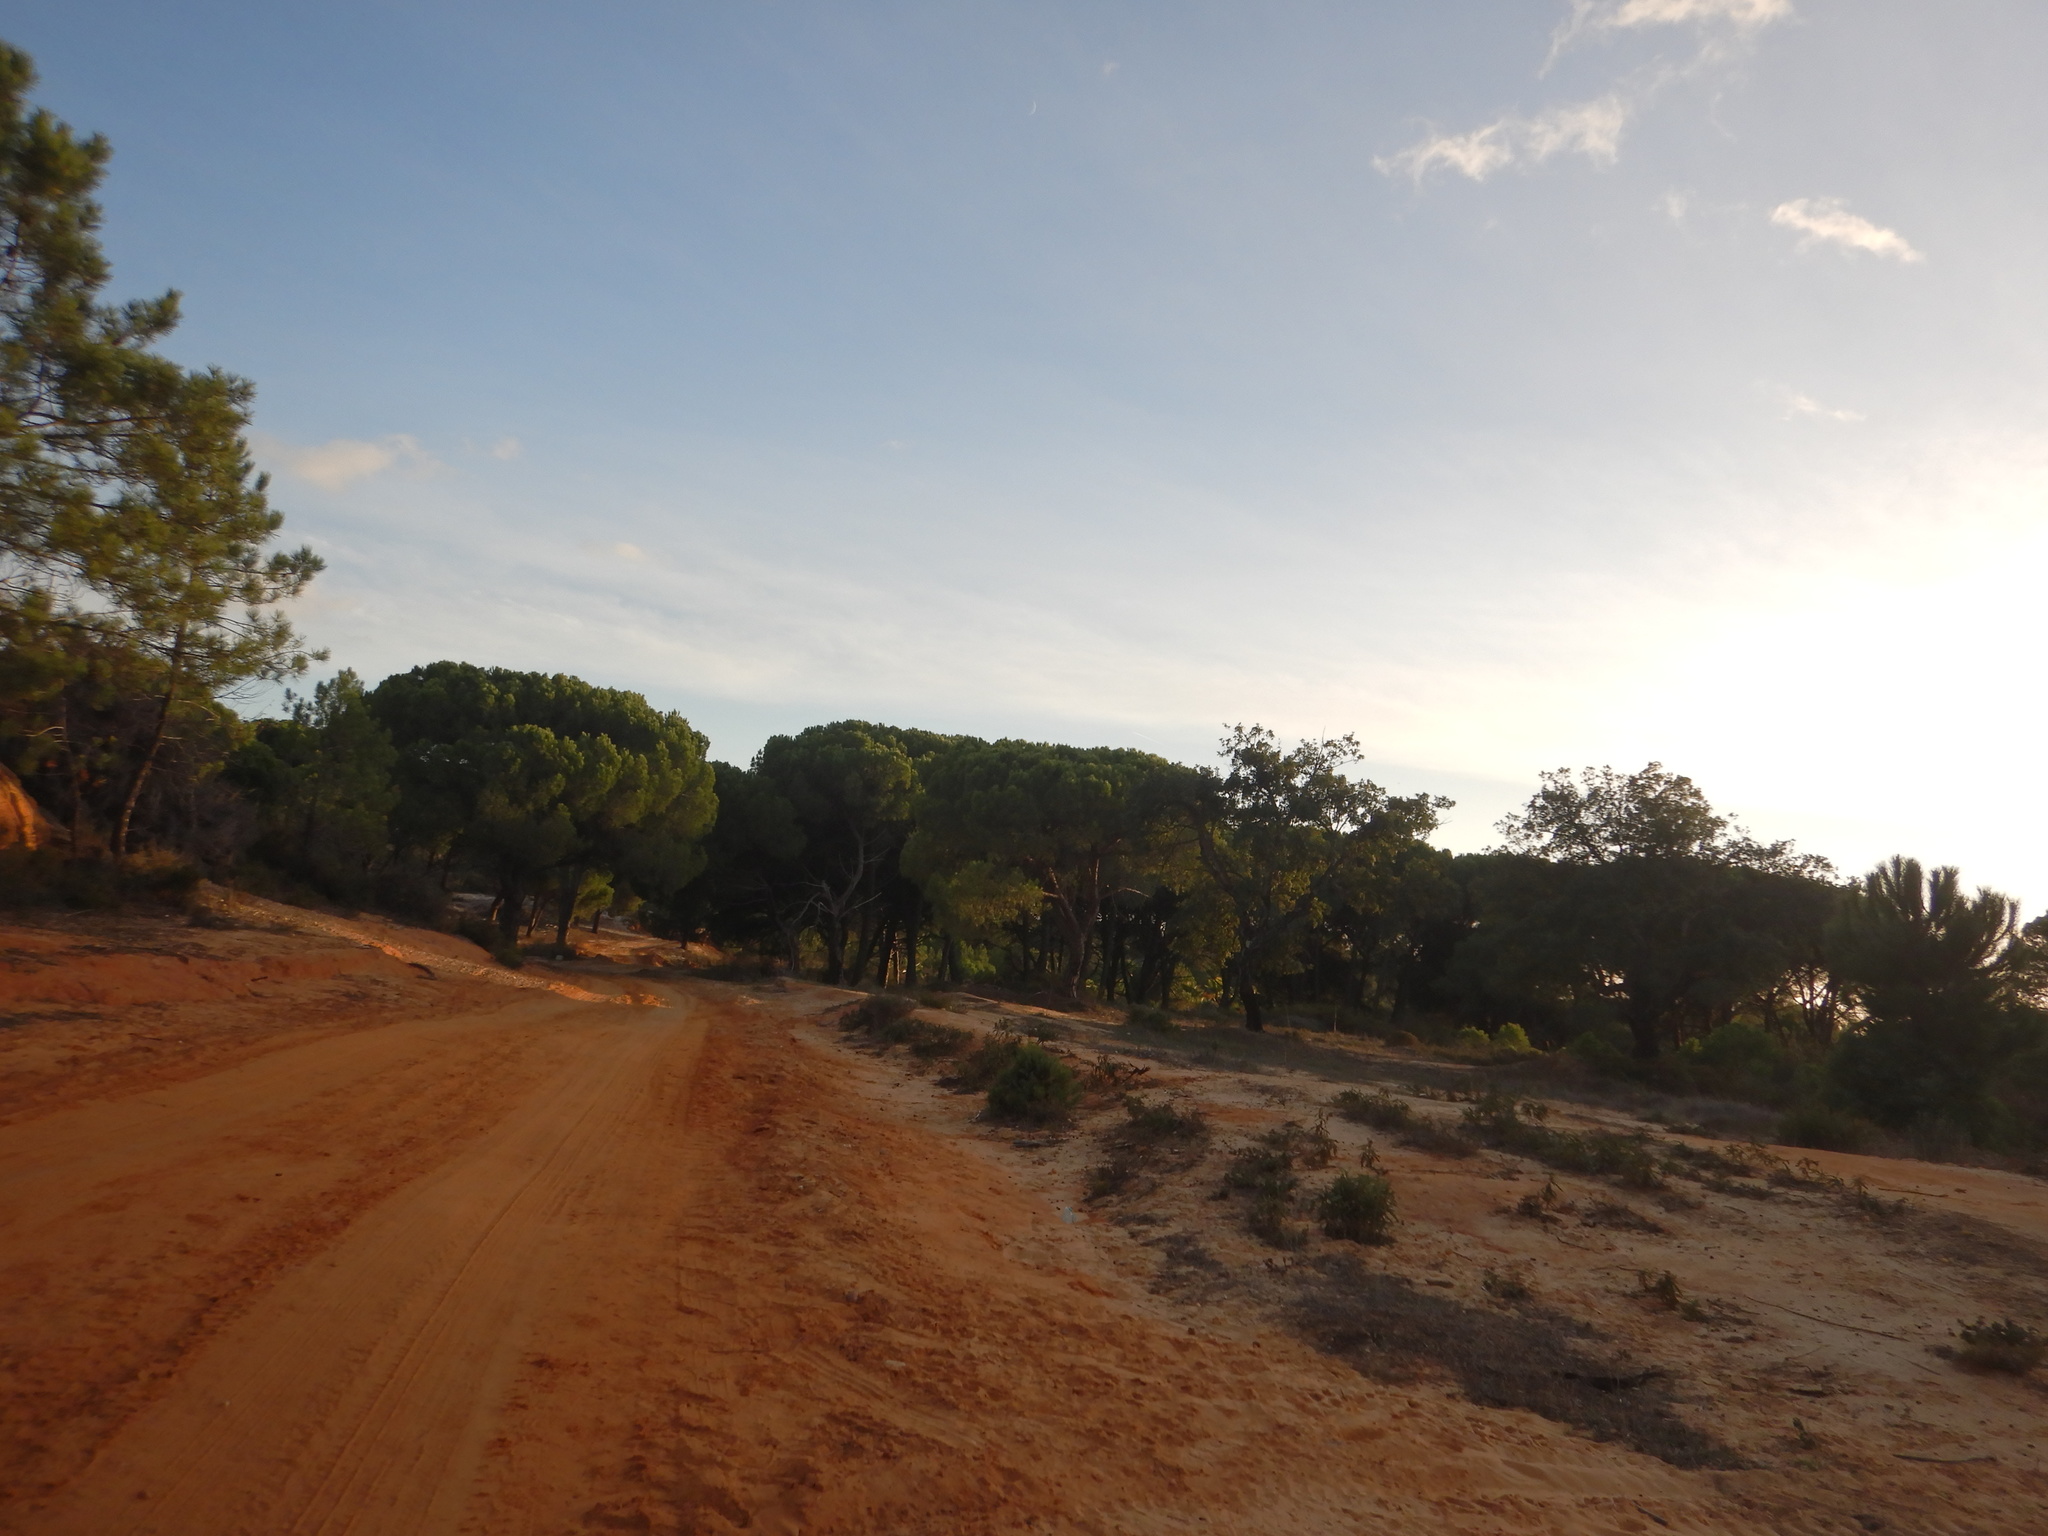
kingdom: Plantae
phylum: Tracheophyta
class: Pinopsida
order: Pinales
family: Pinaceae
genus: Pinus
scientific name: Pinus pinea
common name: Italian stone pine
